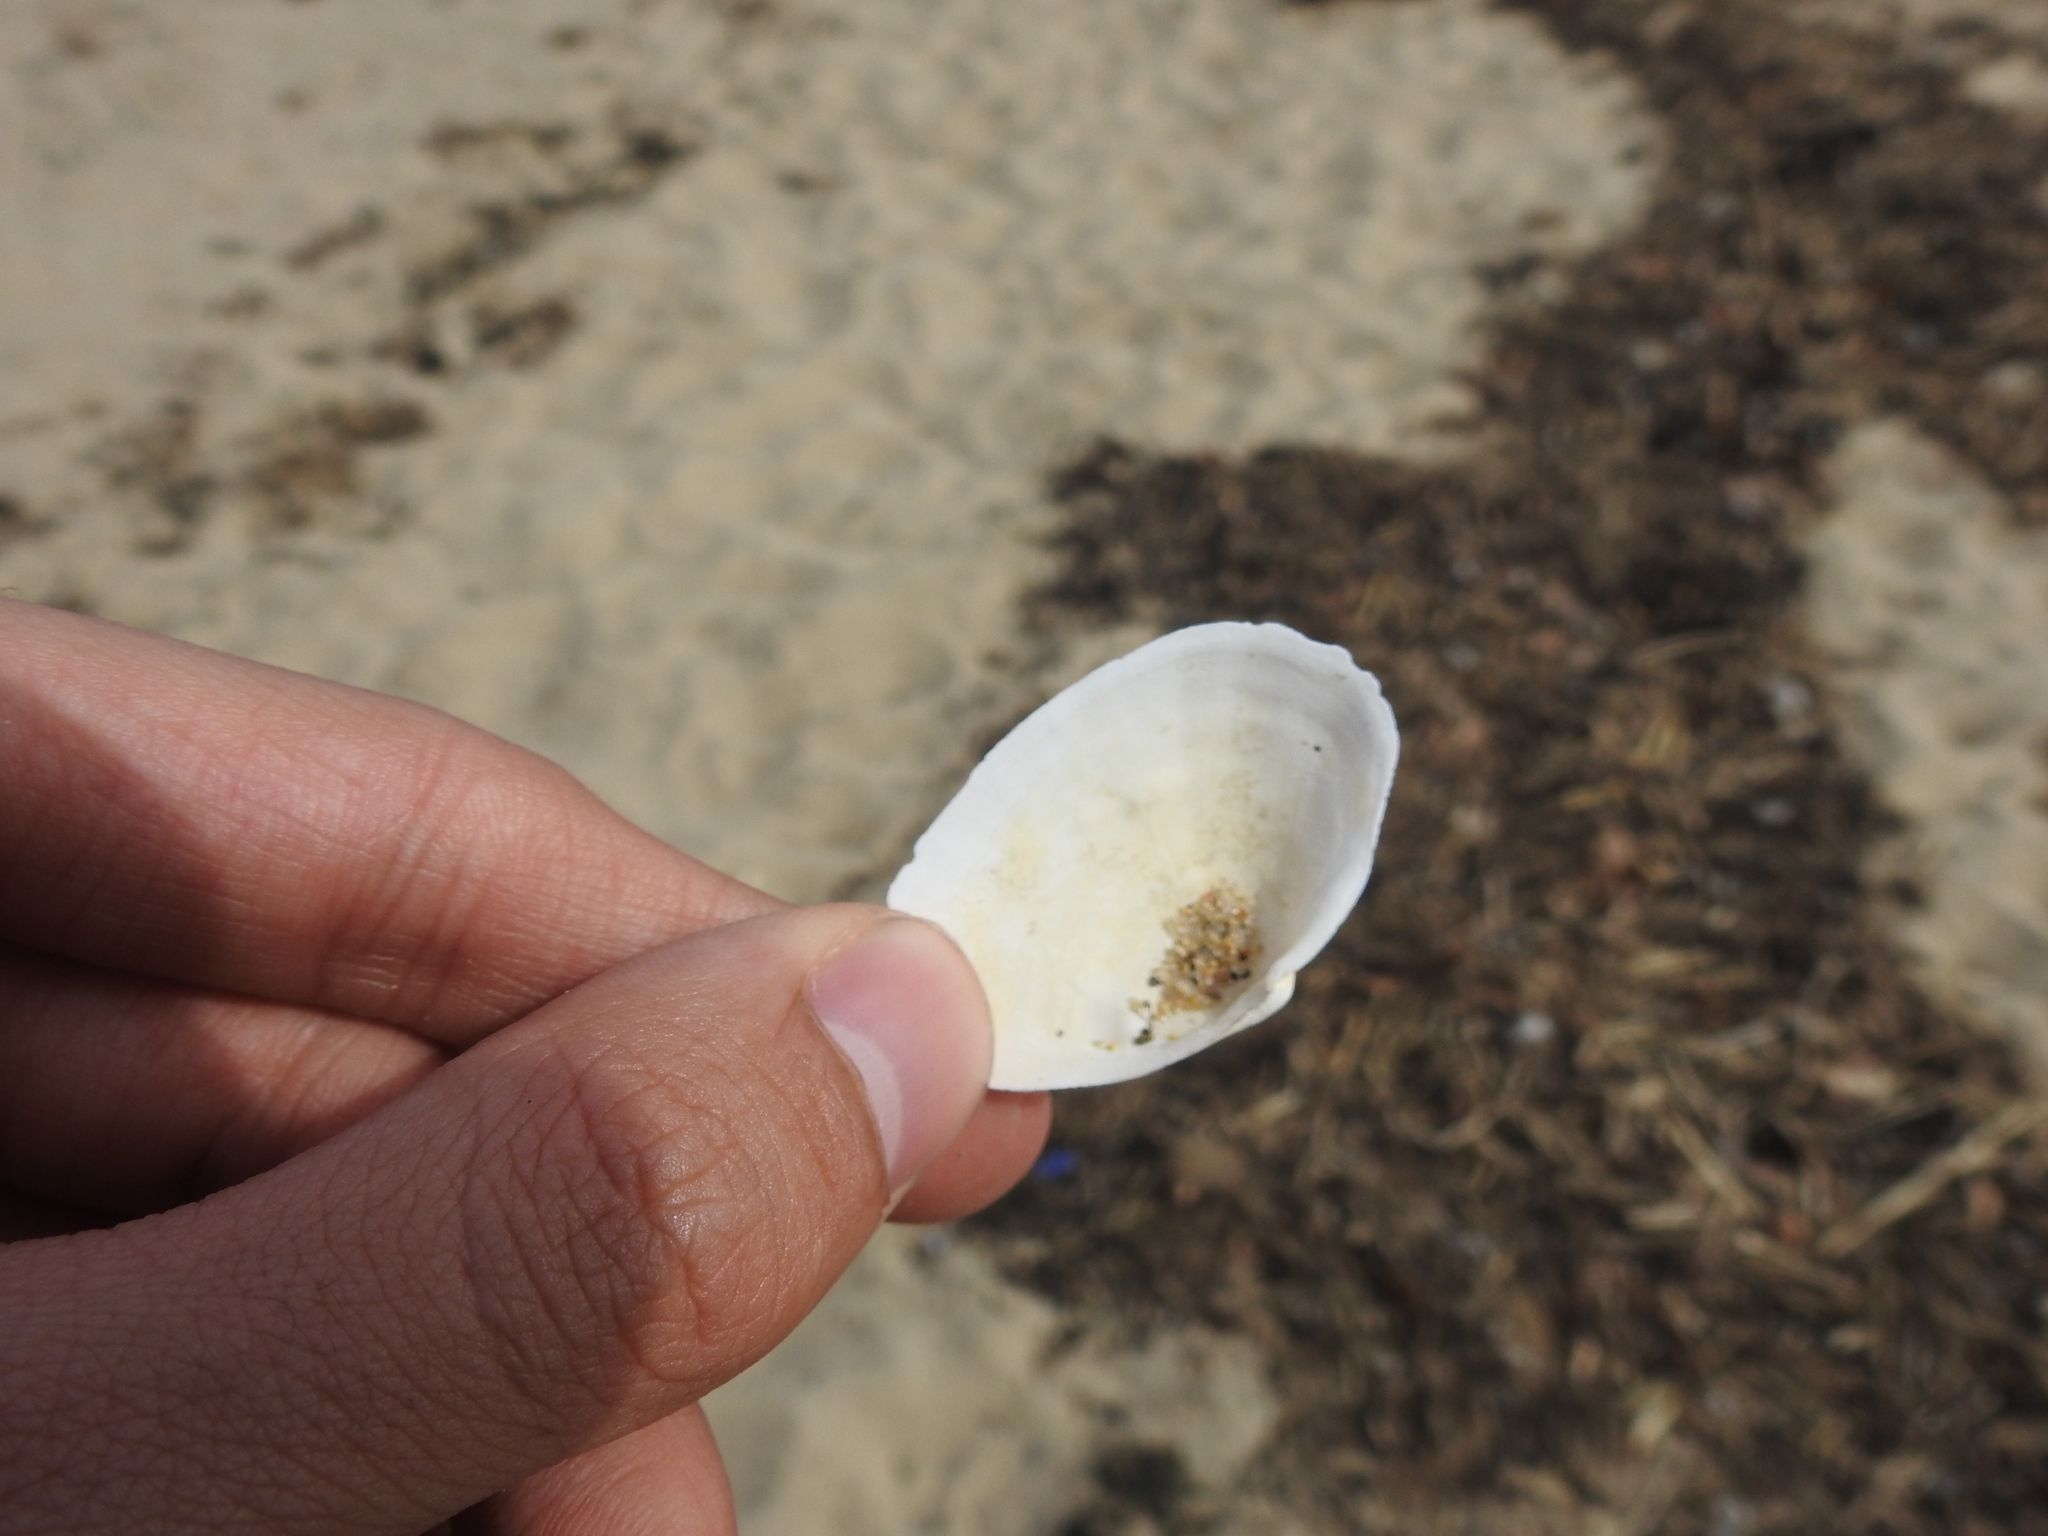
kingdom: Animalia
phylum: Mollusca
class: Bivalvia
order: Myida
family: Myidae
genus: Mya
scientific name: Mya arenaria
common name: Soft-shelled clam
